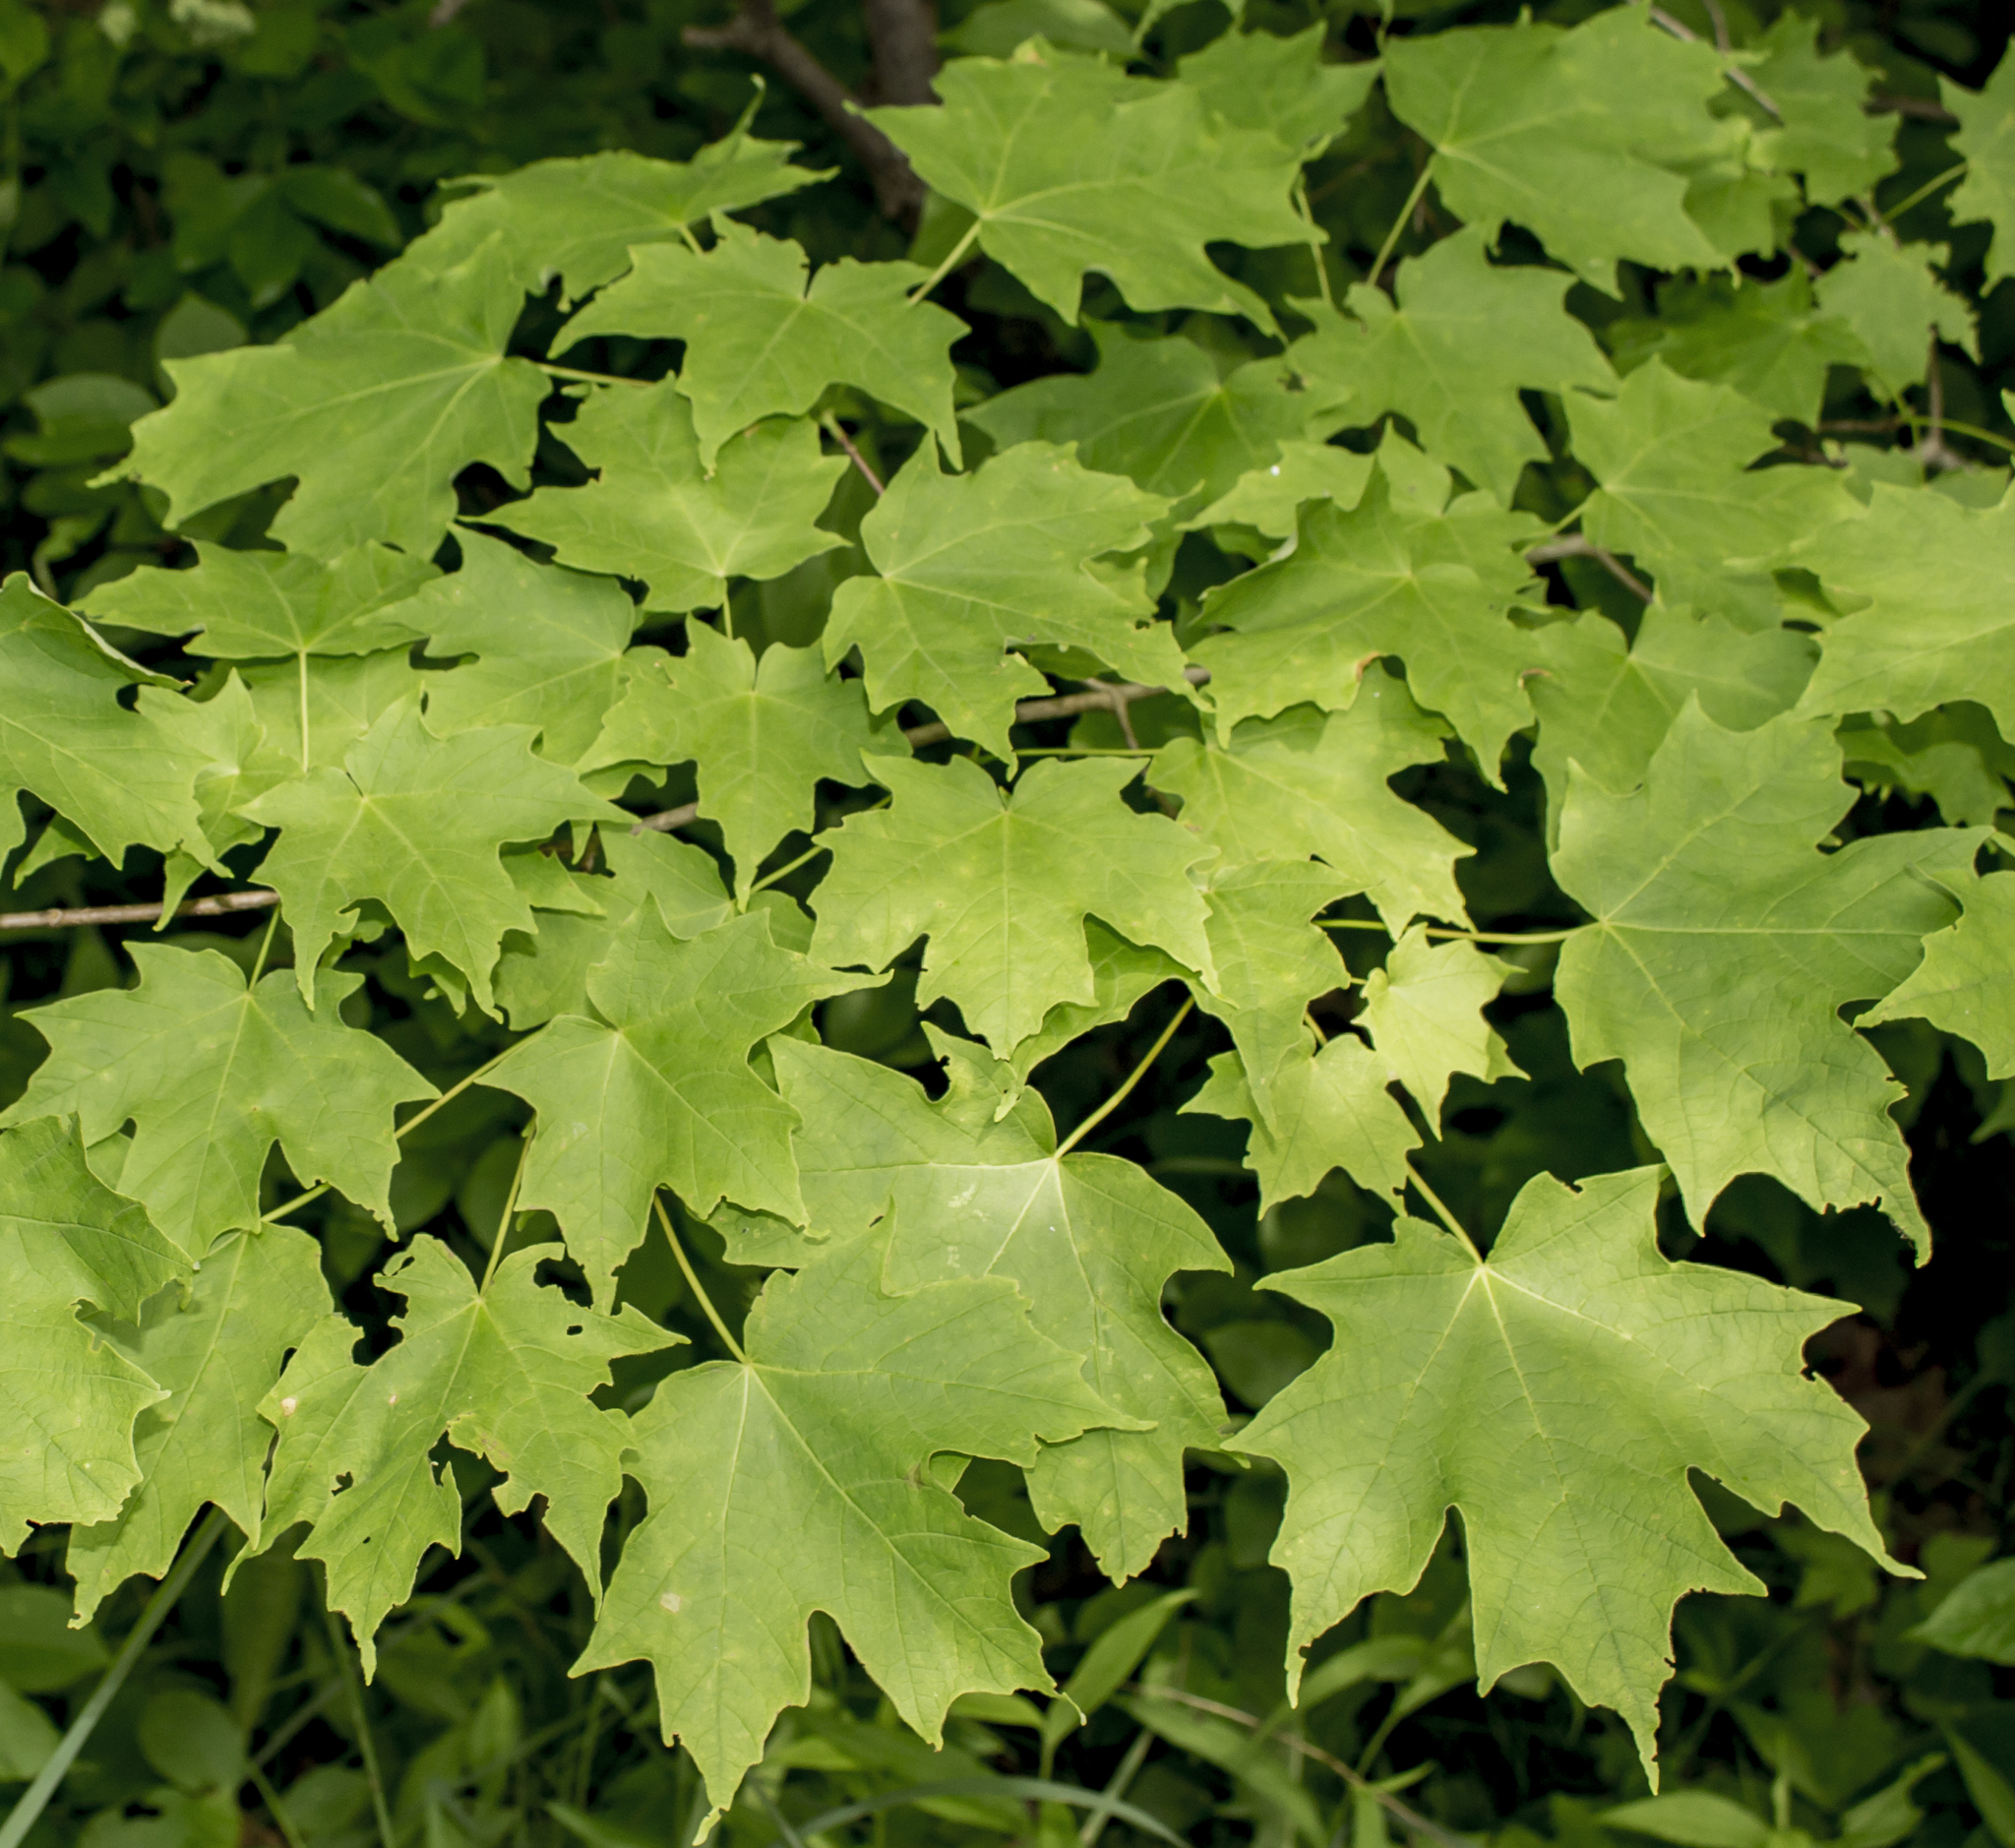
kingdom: Plantae
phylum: Tracheophyta
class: Magnoliopsida
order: Sapindales
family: Sapindaceae
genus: Acer
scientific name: Acer saccharum
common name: Sugar maple
